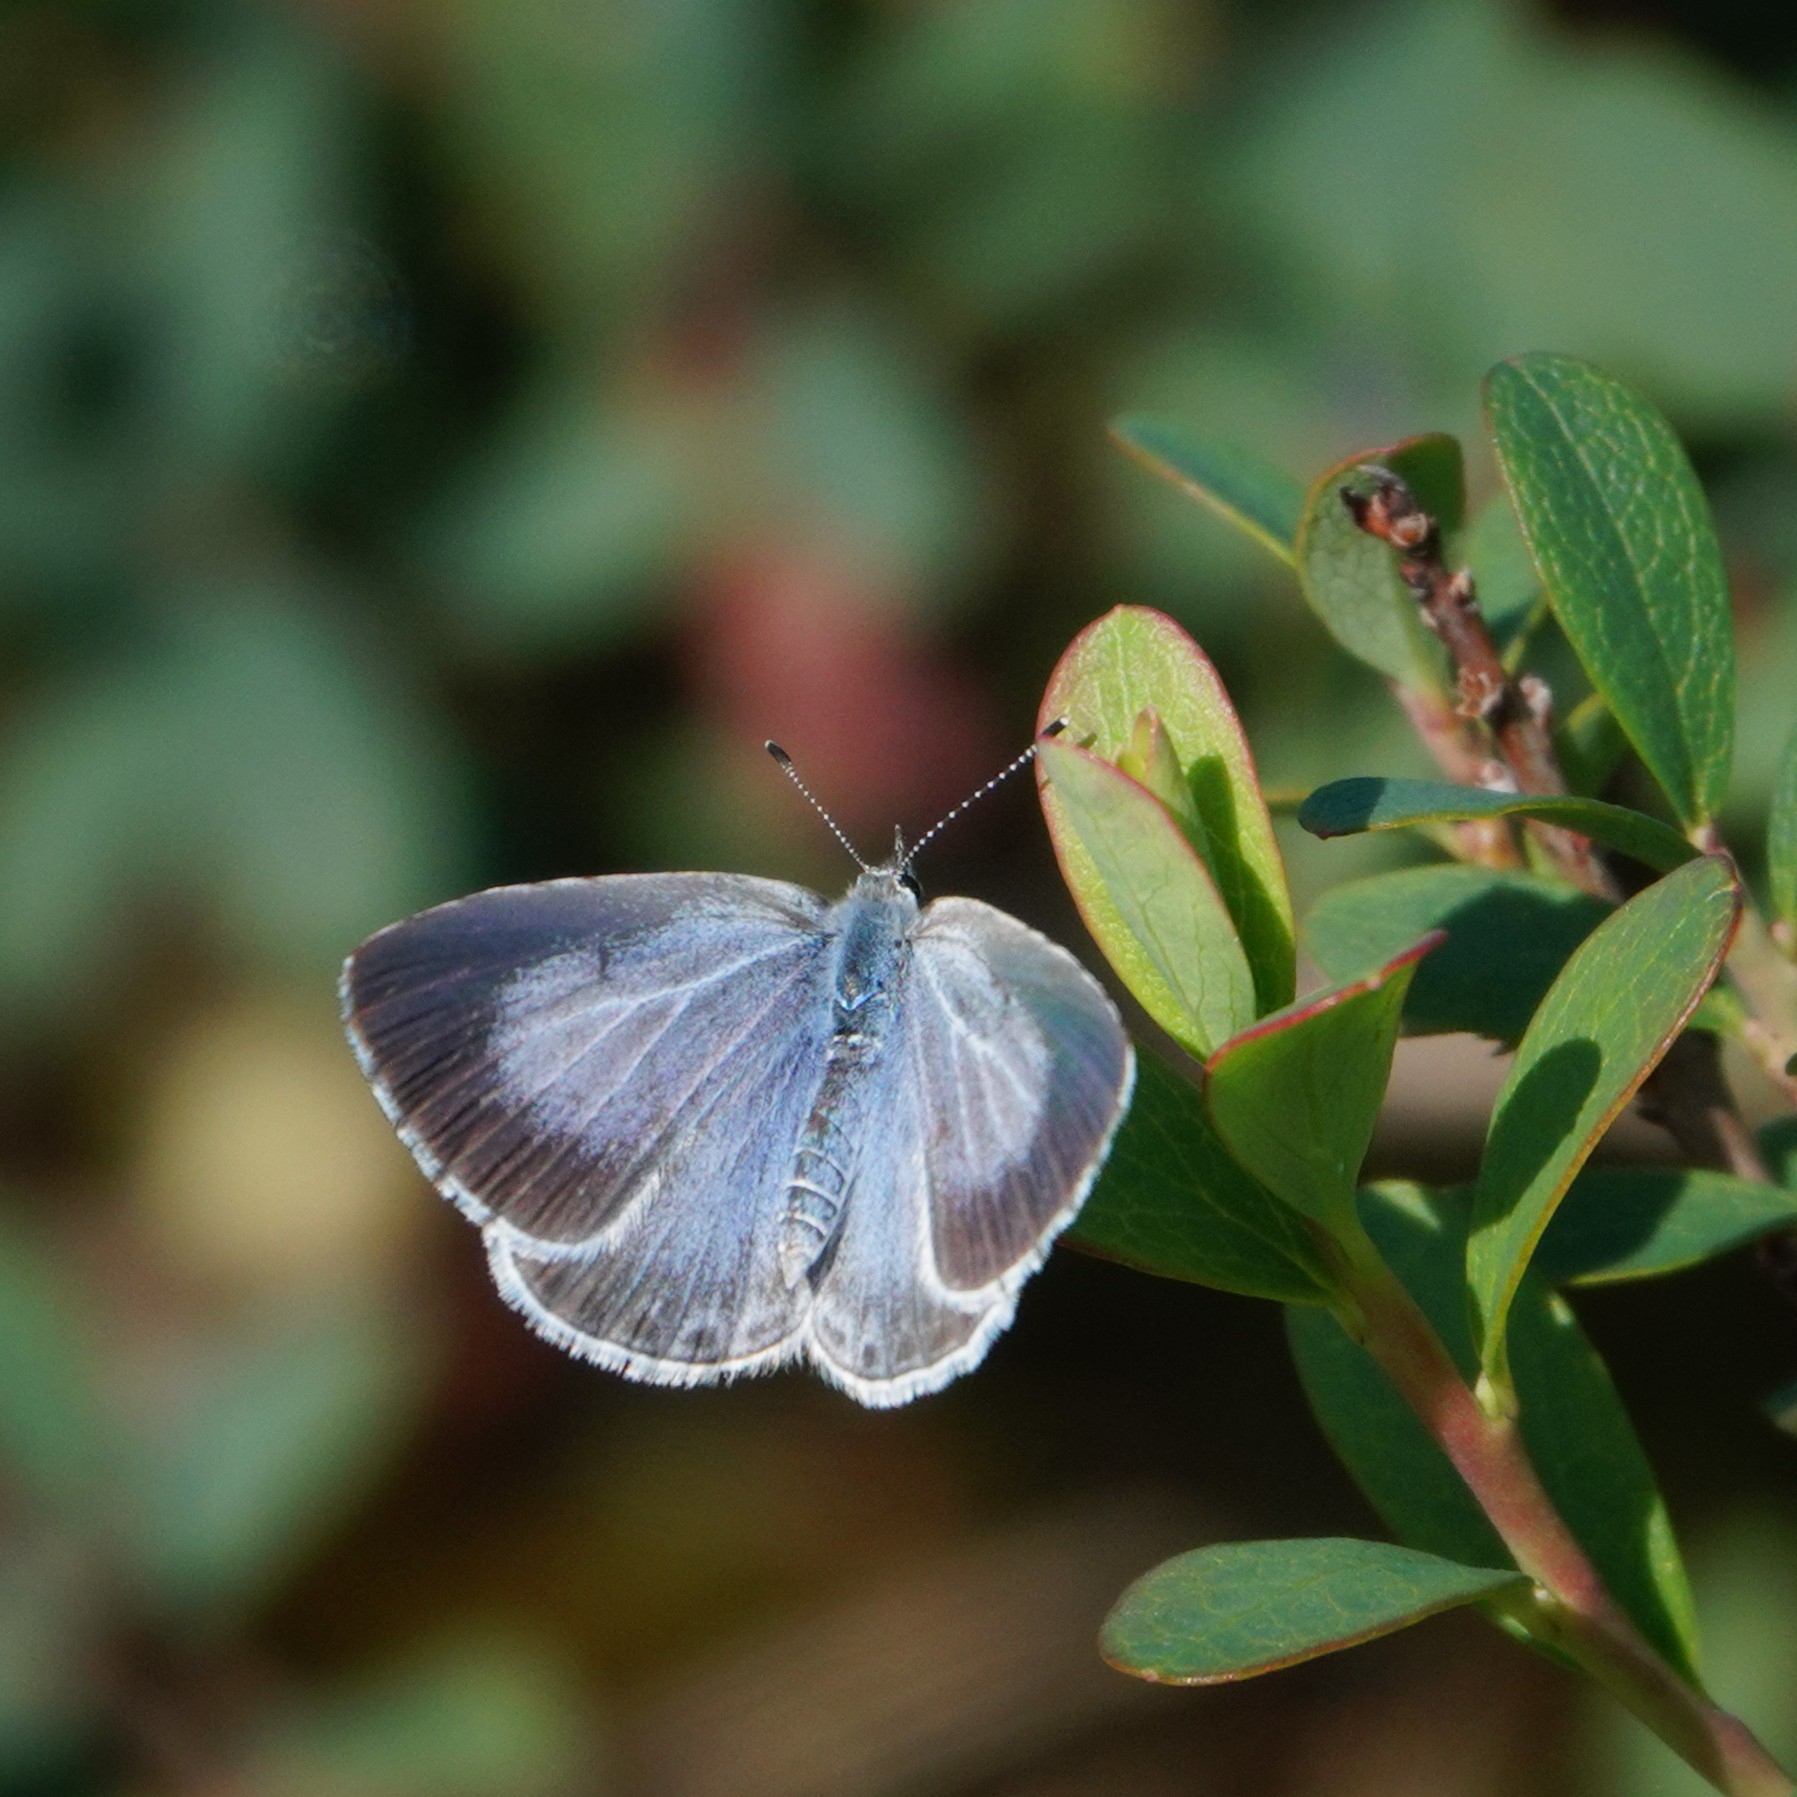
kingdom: Animalia
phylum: Arthropoda
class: Insecta
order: Lepidoptera
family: Lycaenidae
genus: Celastrina
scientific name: Celastrina argiolus
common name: Holly blue
